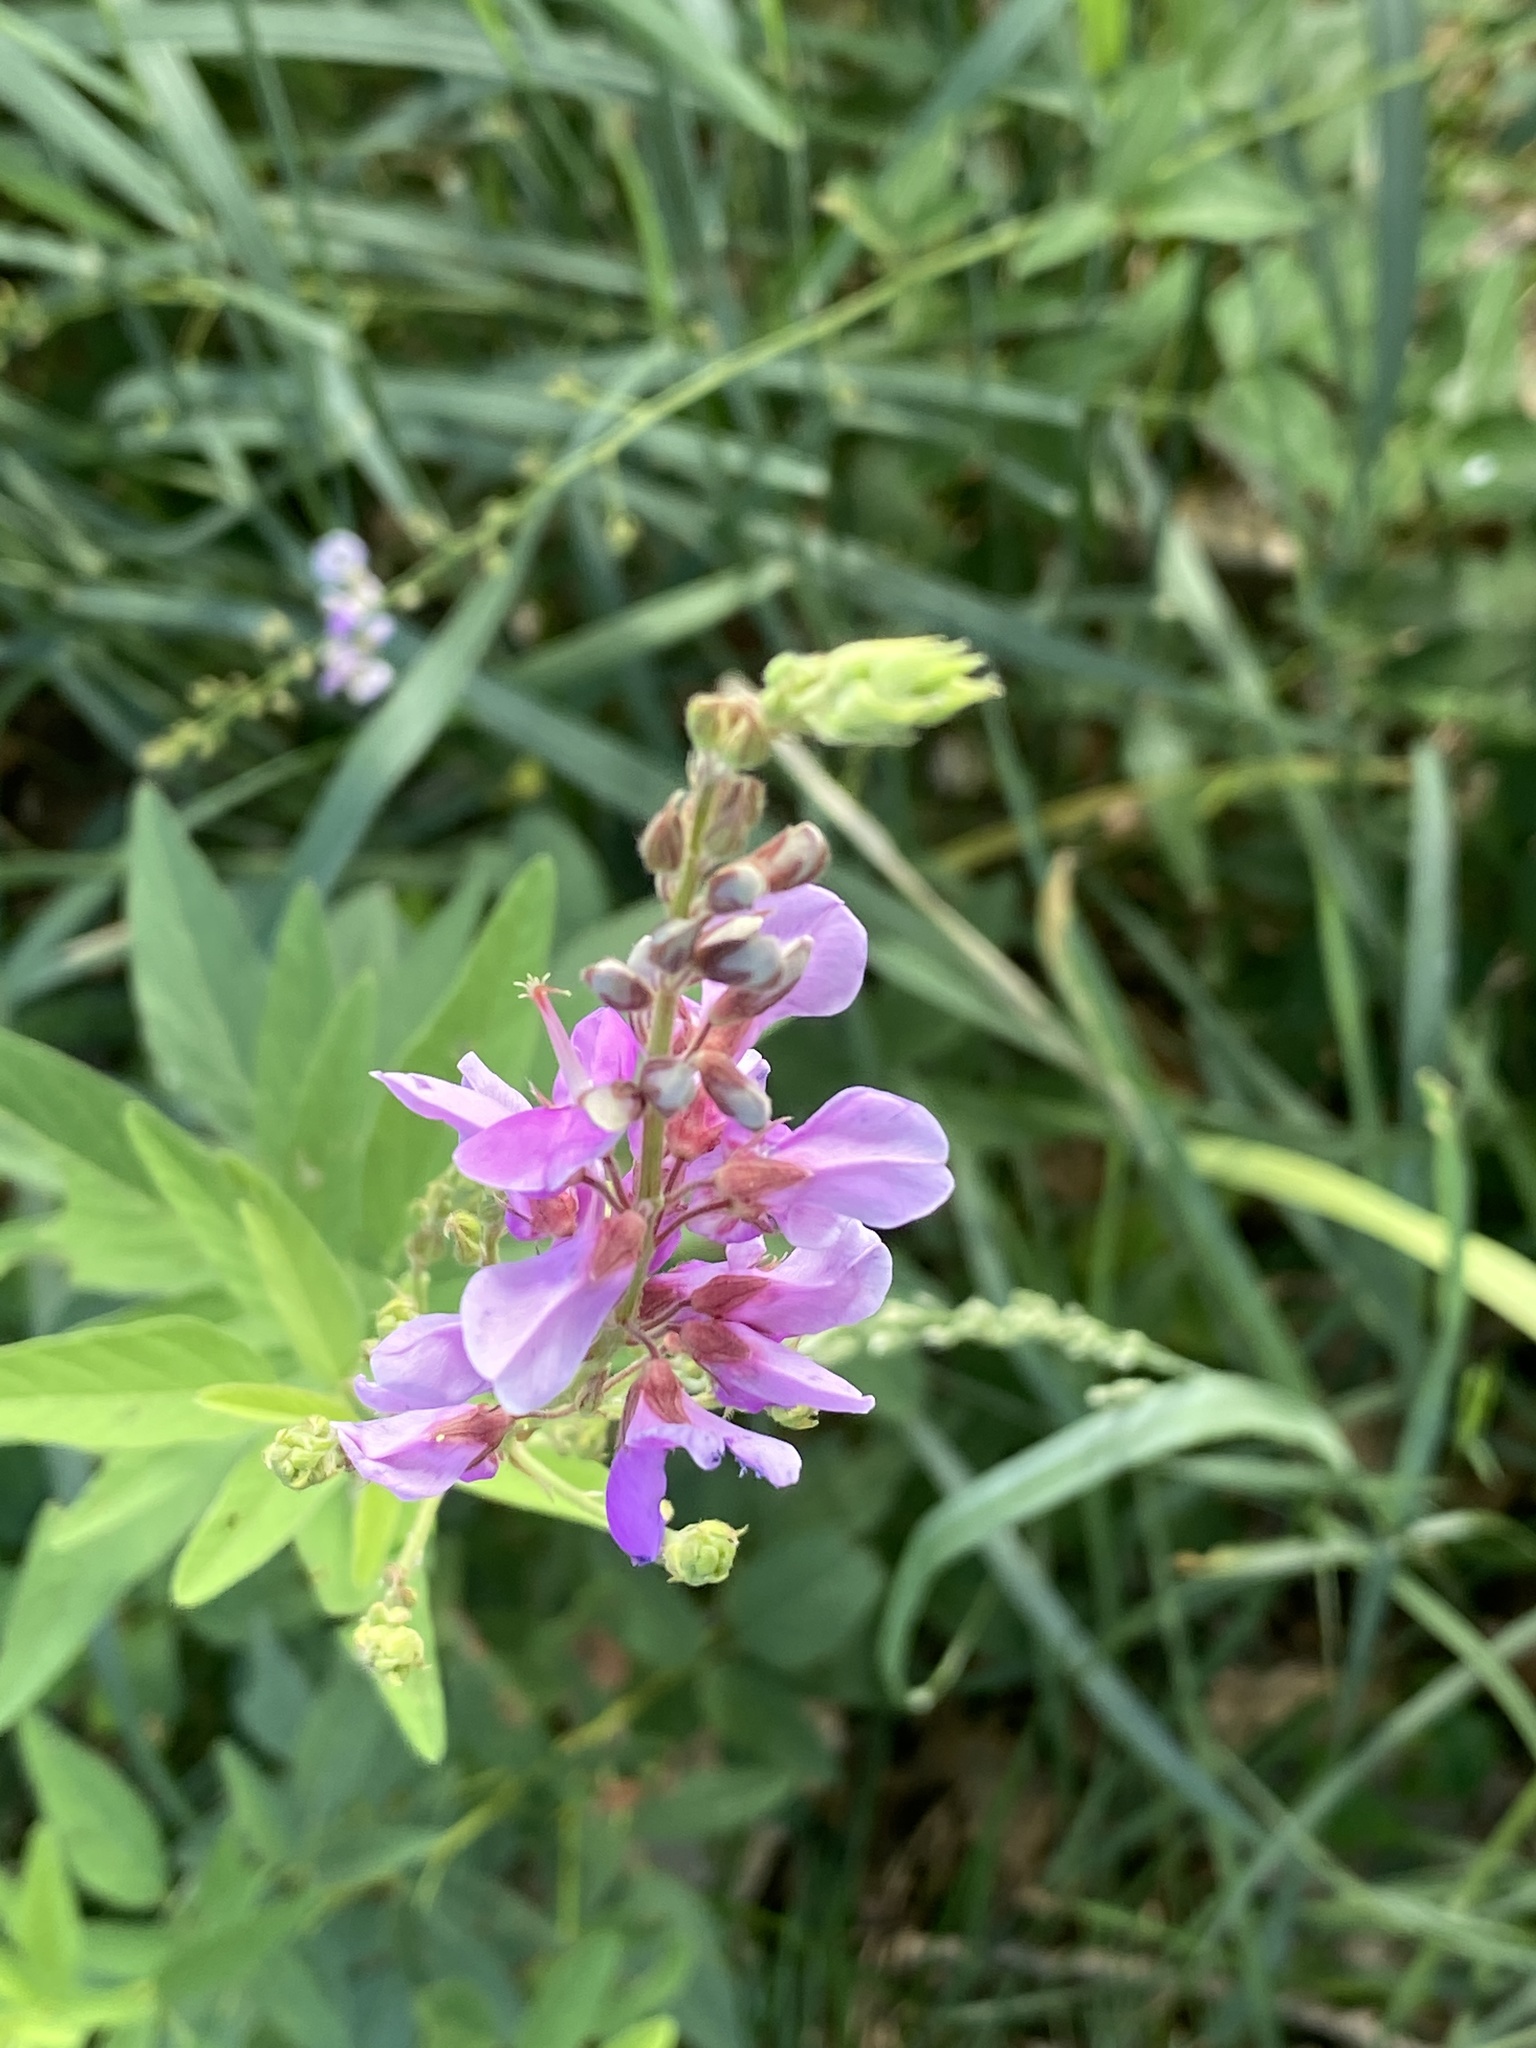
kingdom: Plantae
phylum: Tracheophyta
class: Magnoliopsida
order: Fabales
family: Fabaceae
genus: Desmodium
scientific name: Desmodium canadense
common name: Canada tick-trefoil
